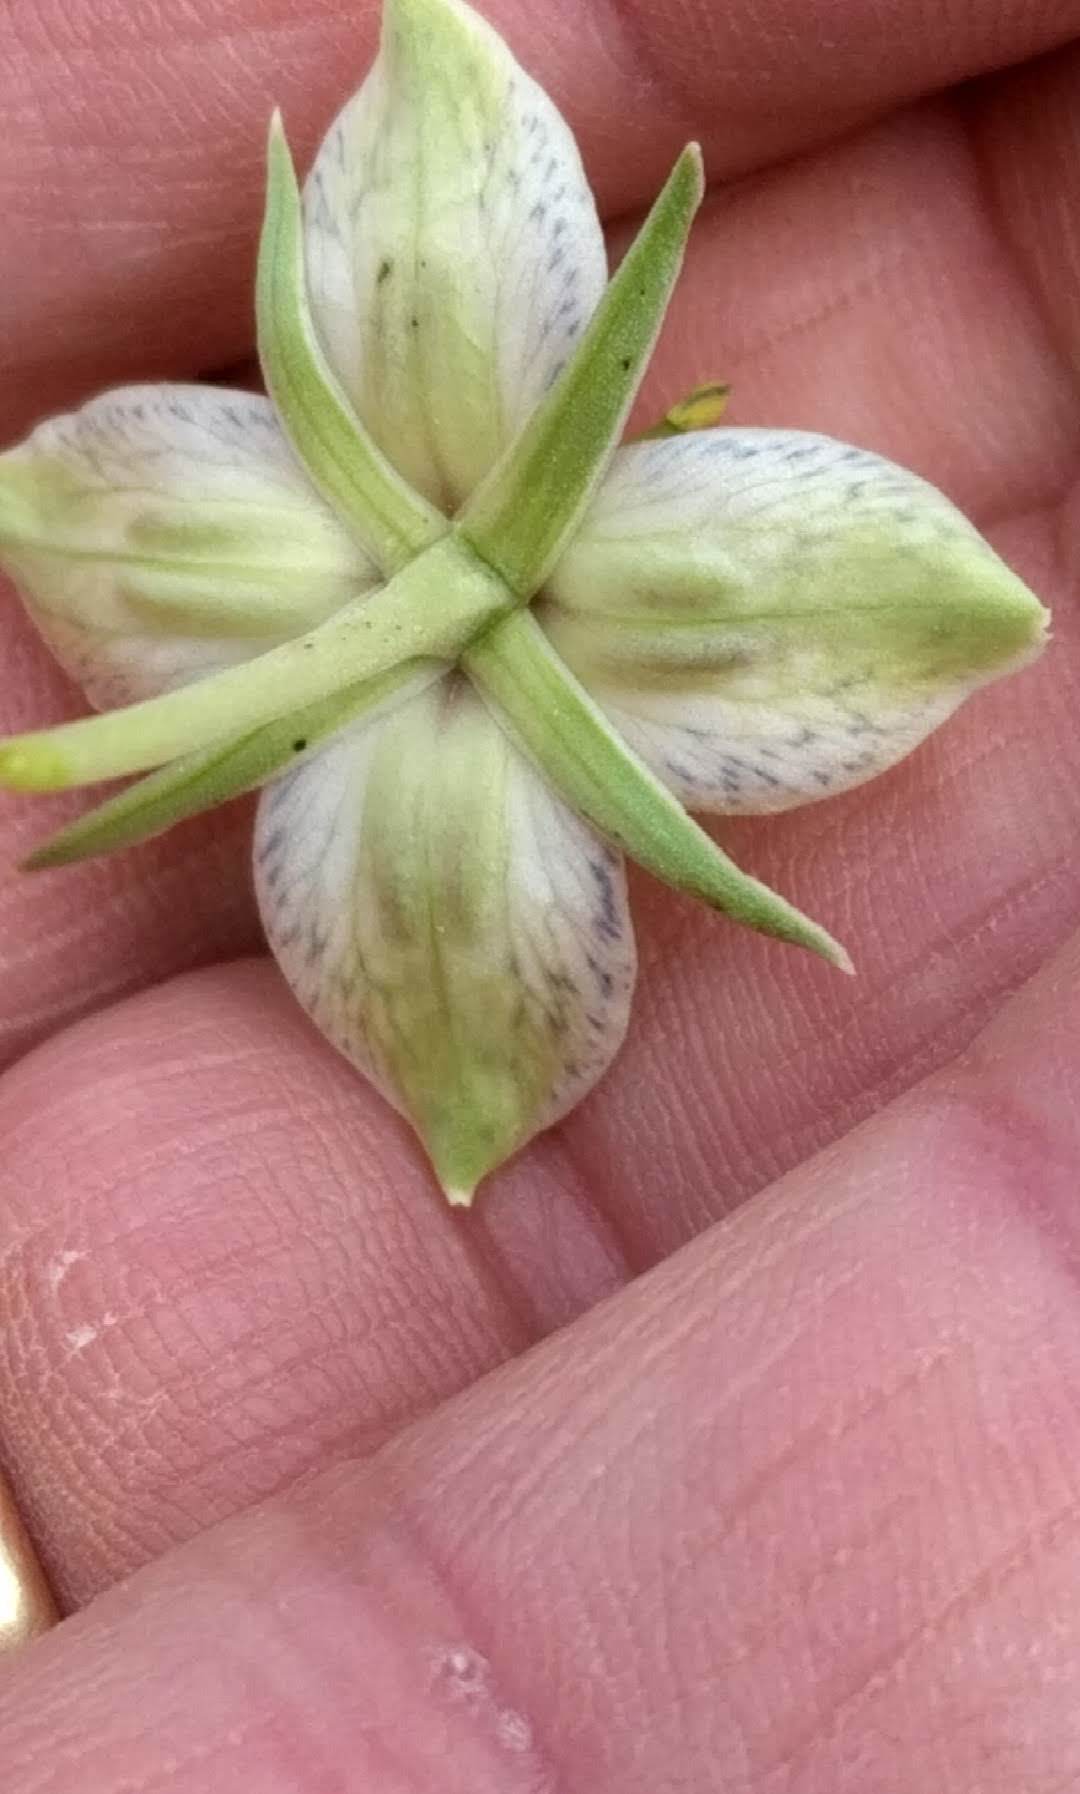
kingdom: Plantae
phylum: Tracheophyta
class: Magnoliopsida
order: Gentianales
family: Gentianaceae
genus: Frasera
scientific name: Frasera speciosa
